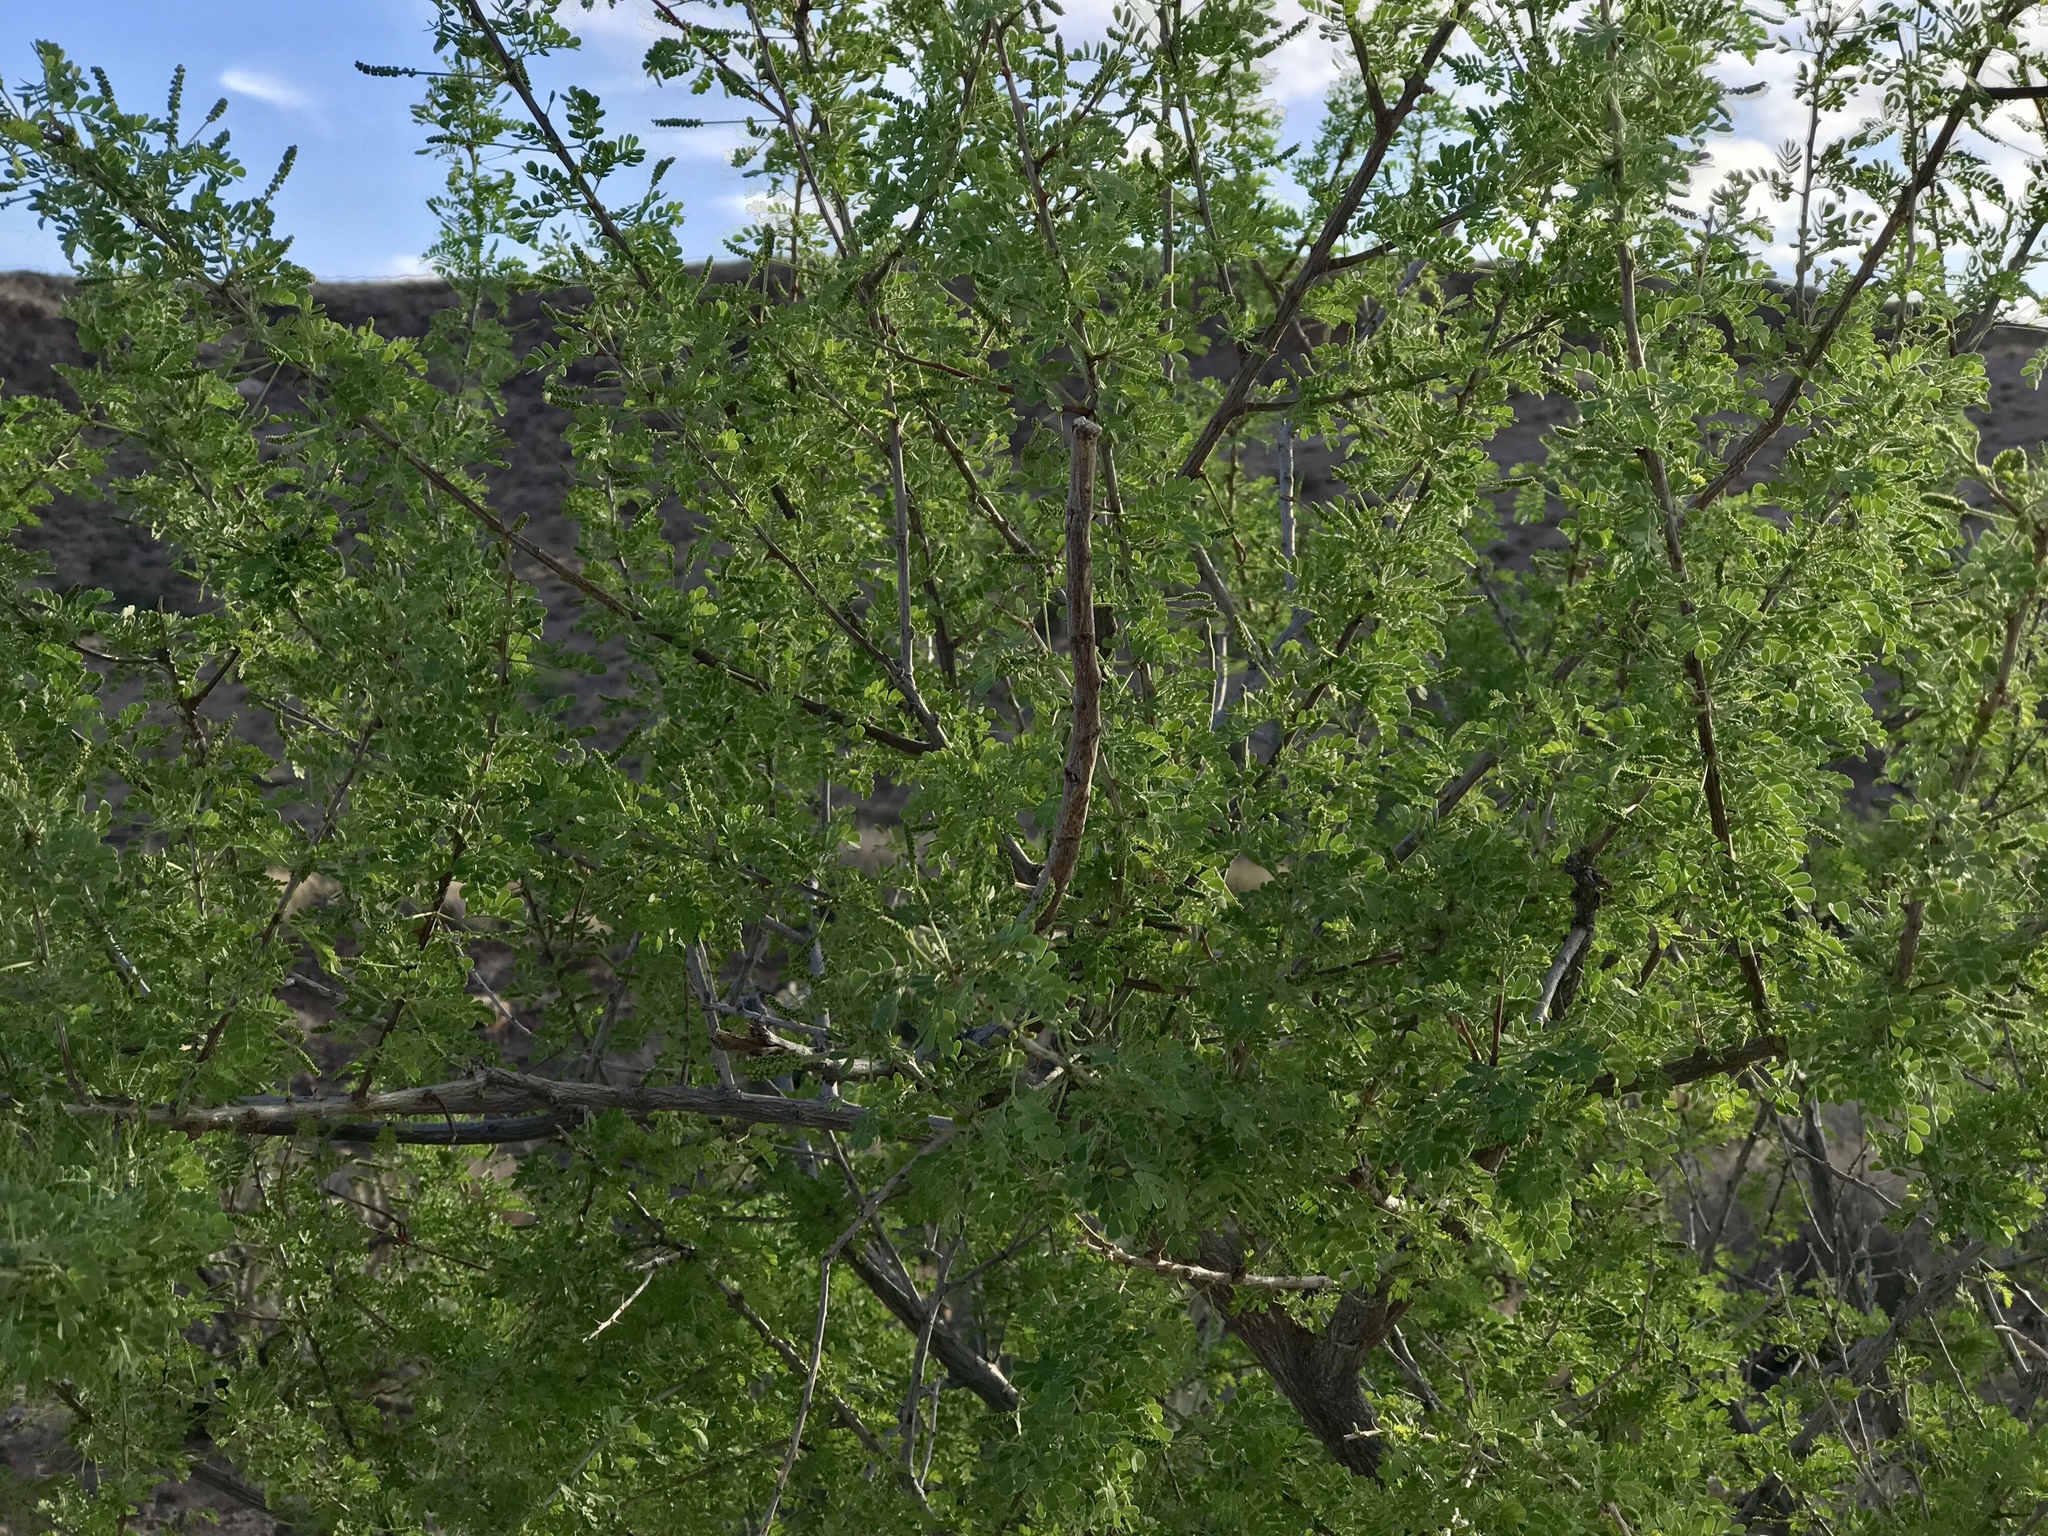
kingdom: Plantae
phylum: Tracheophyta
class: Magnoliopsida
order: Fabales
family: Fabaceae
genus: Senegalia
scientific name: Senegalia greggii
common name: Texas-mimosa
